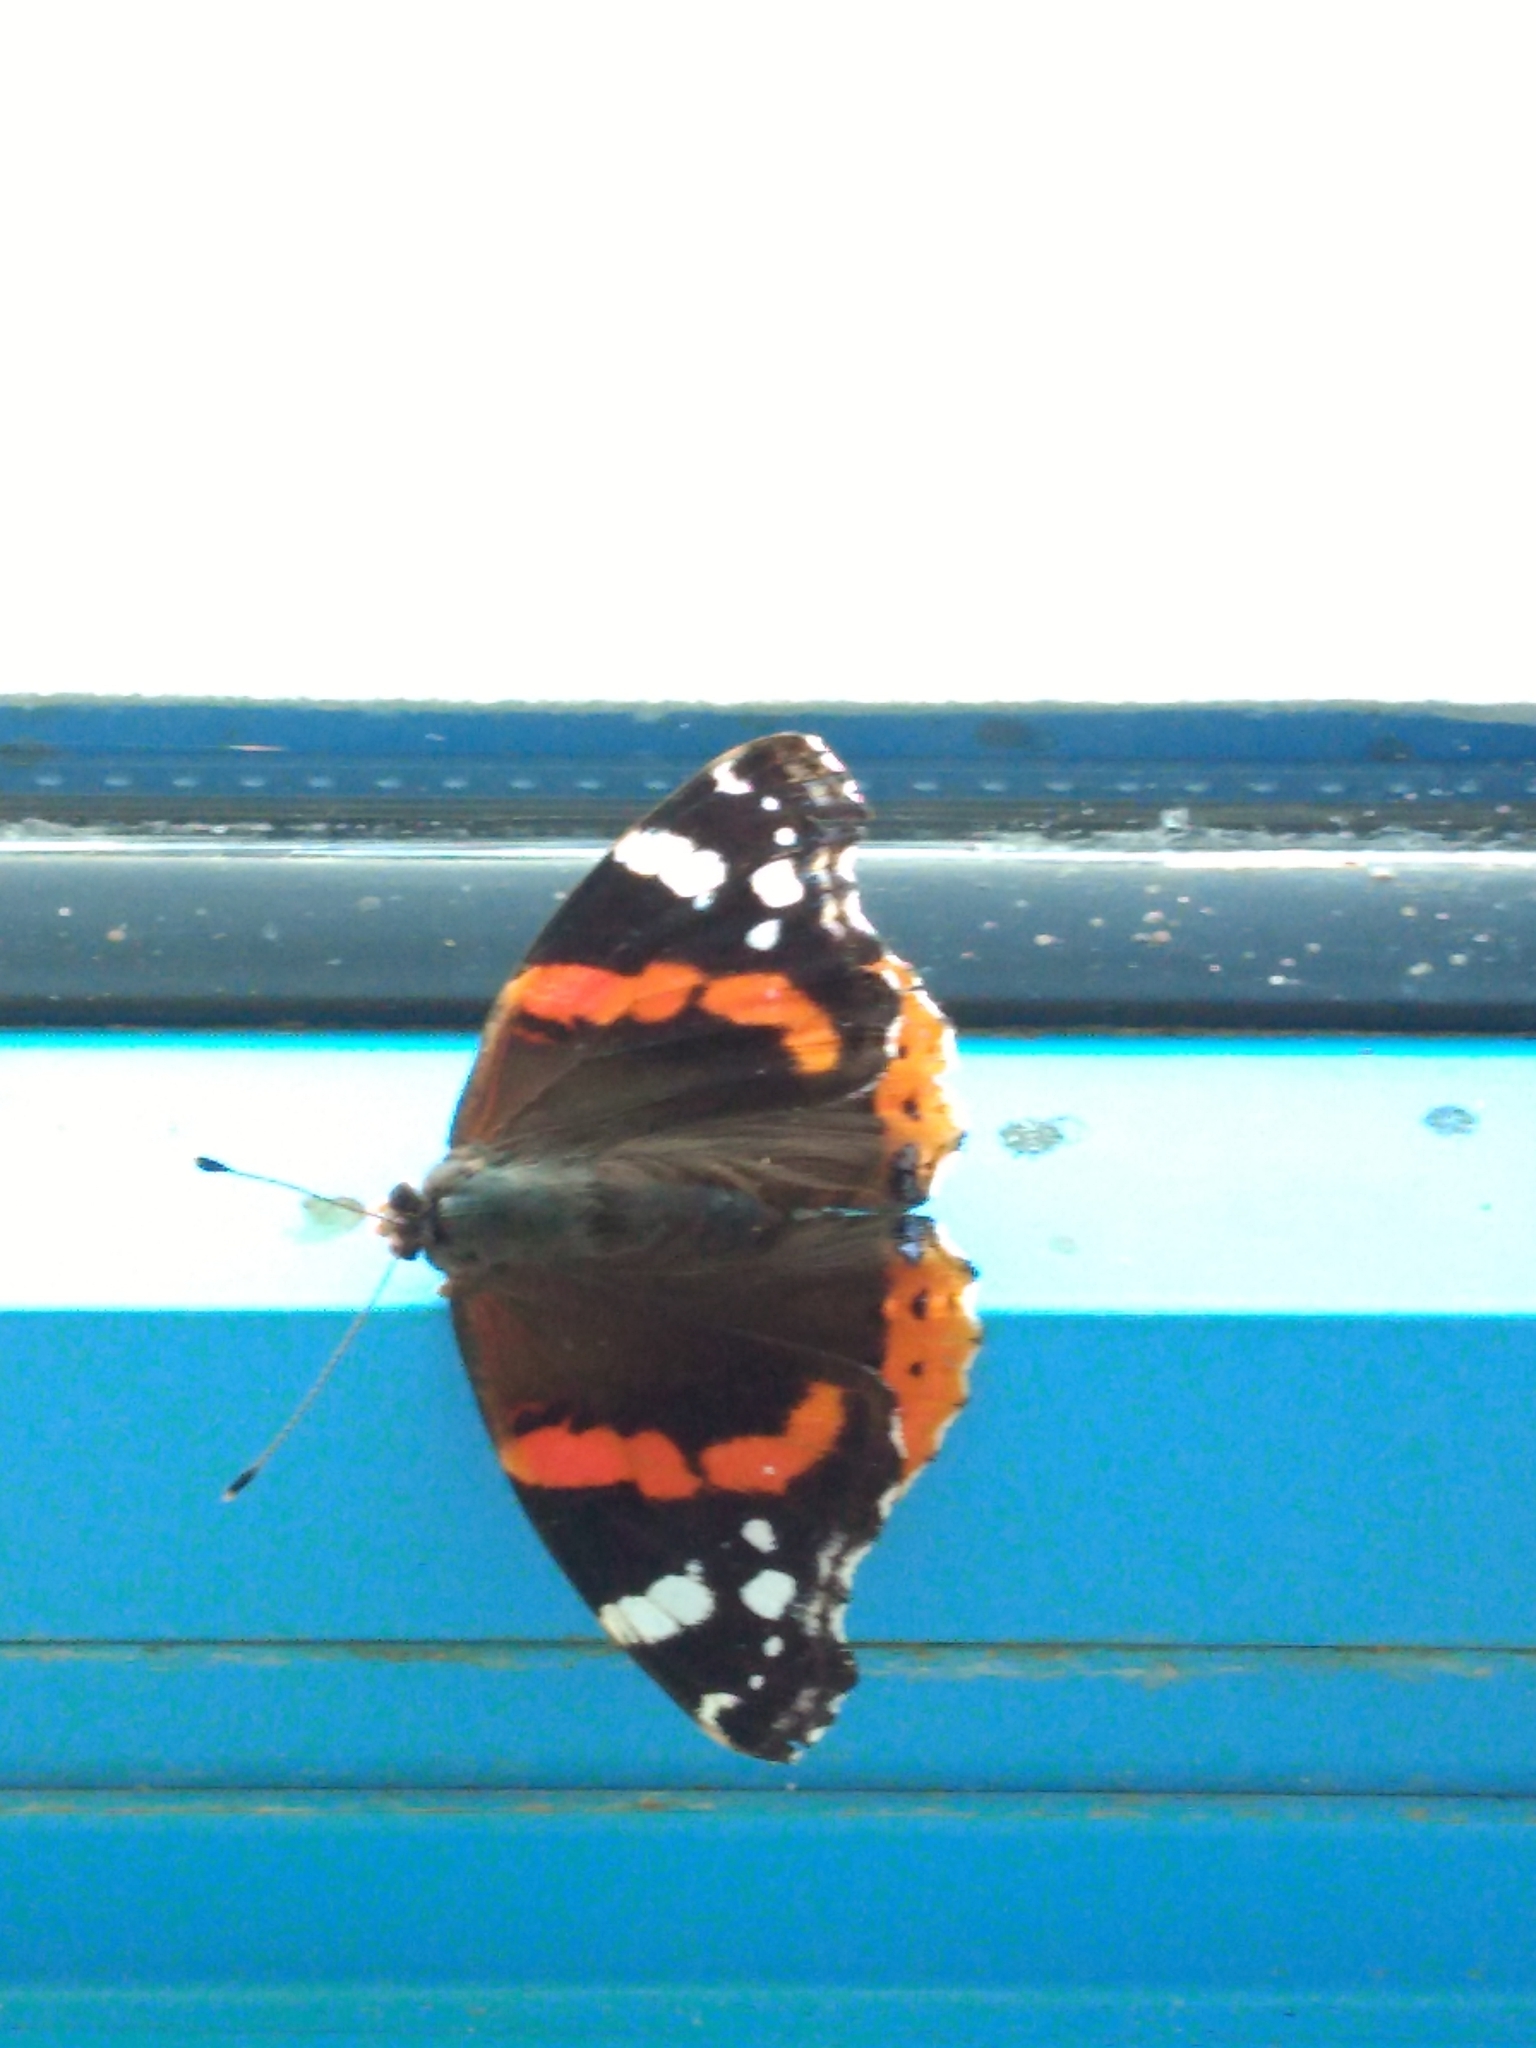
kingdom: Animalia
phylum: Arthropoda
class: Insecta
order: Lepidoptera
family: Nymphalidae
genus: Vanessa
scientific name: Vanessa atalanta
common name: Red admiral
